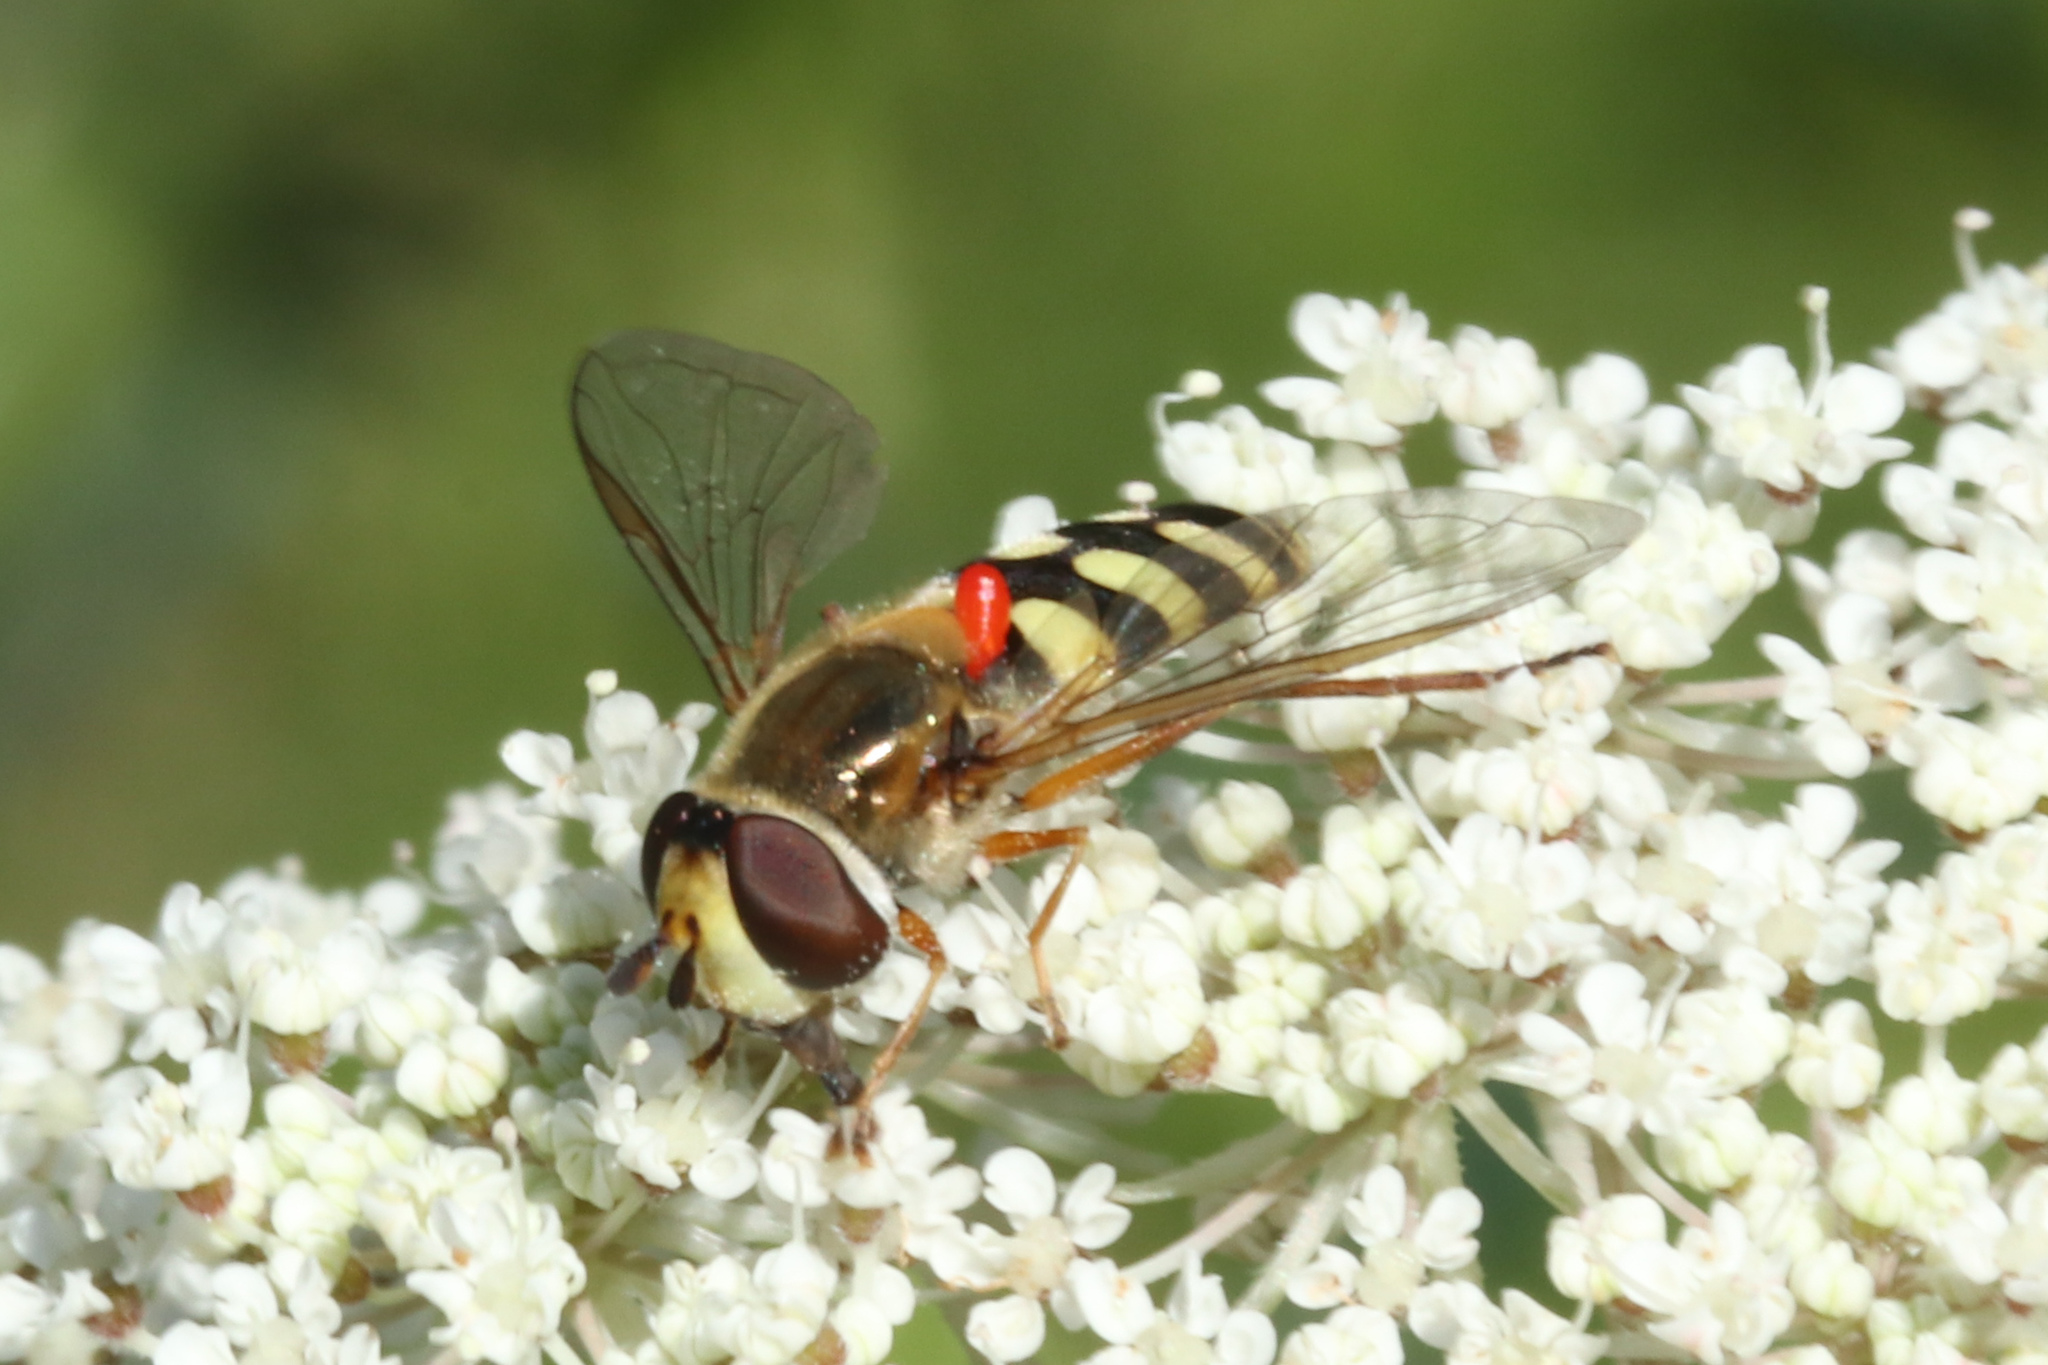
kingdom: Animalia
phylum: Arthropoda
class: Insecta
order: Diptera
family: Syrphidae
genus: Eupeodes
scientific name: Eupeodes corollae
